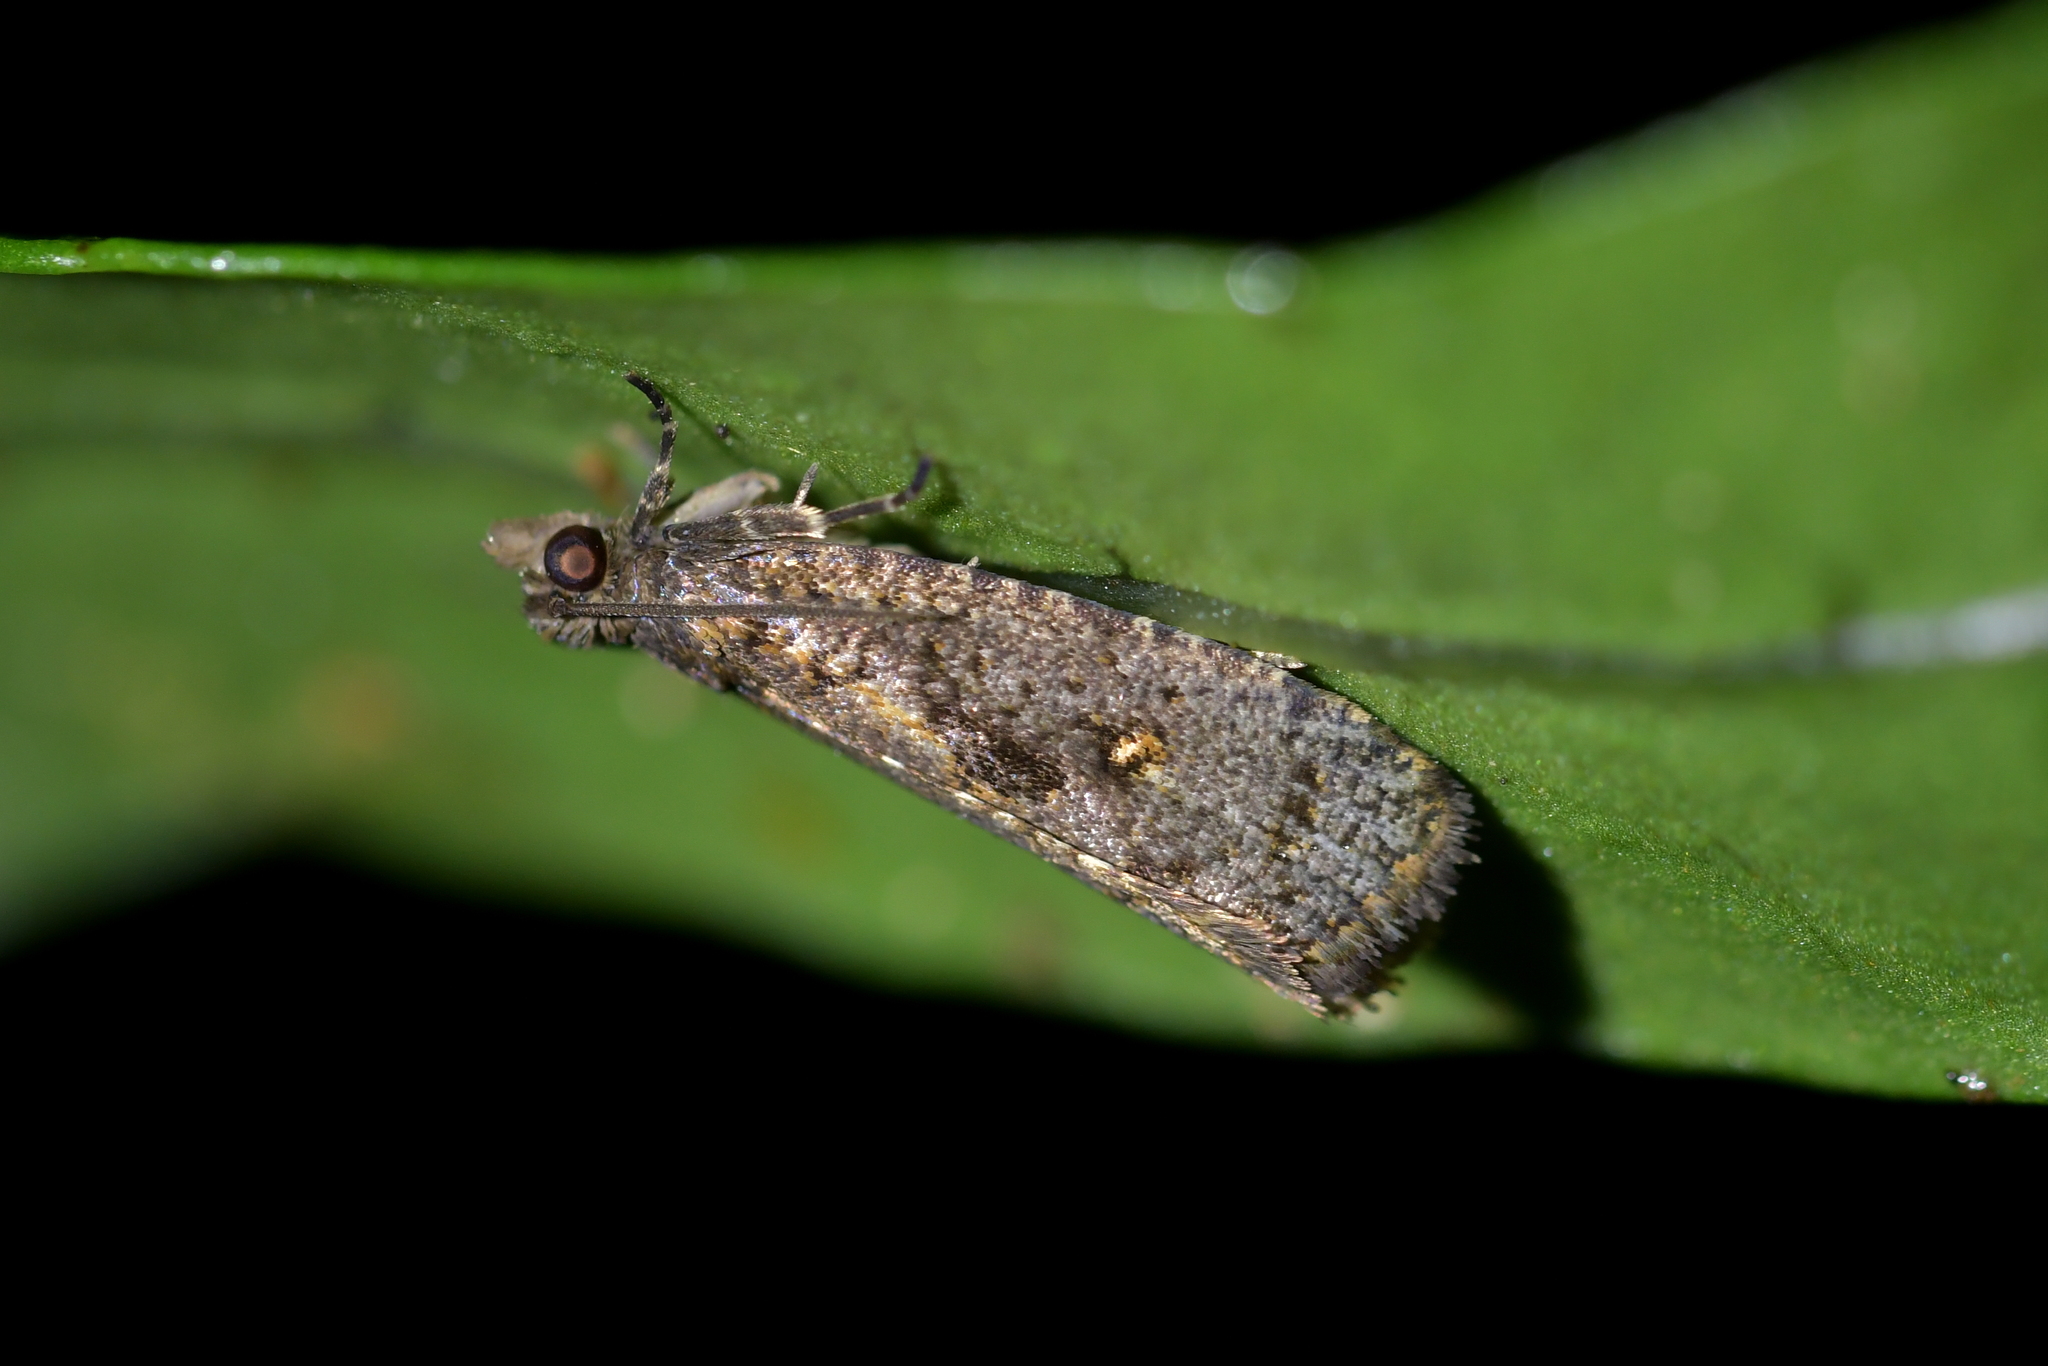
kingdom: Animalia
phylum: Arthropoda
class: Insecta
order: Lepidoptera
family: Tortricidae
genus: Cryptaspasma
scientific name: Cryptaspasma querula
